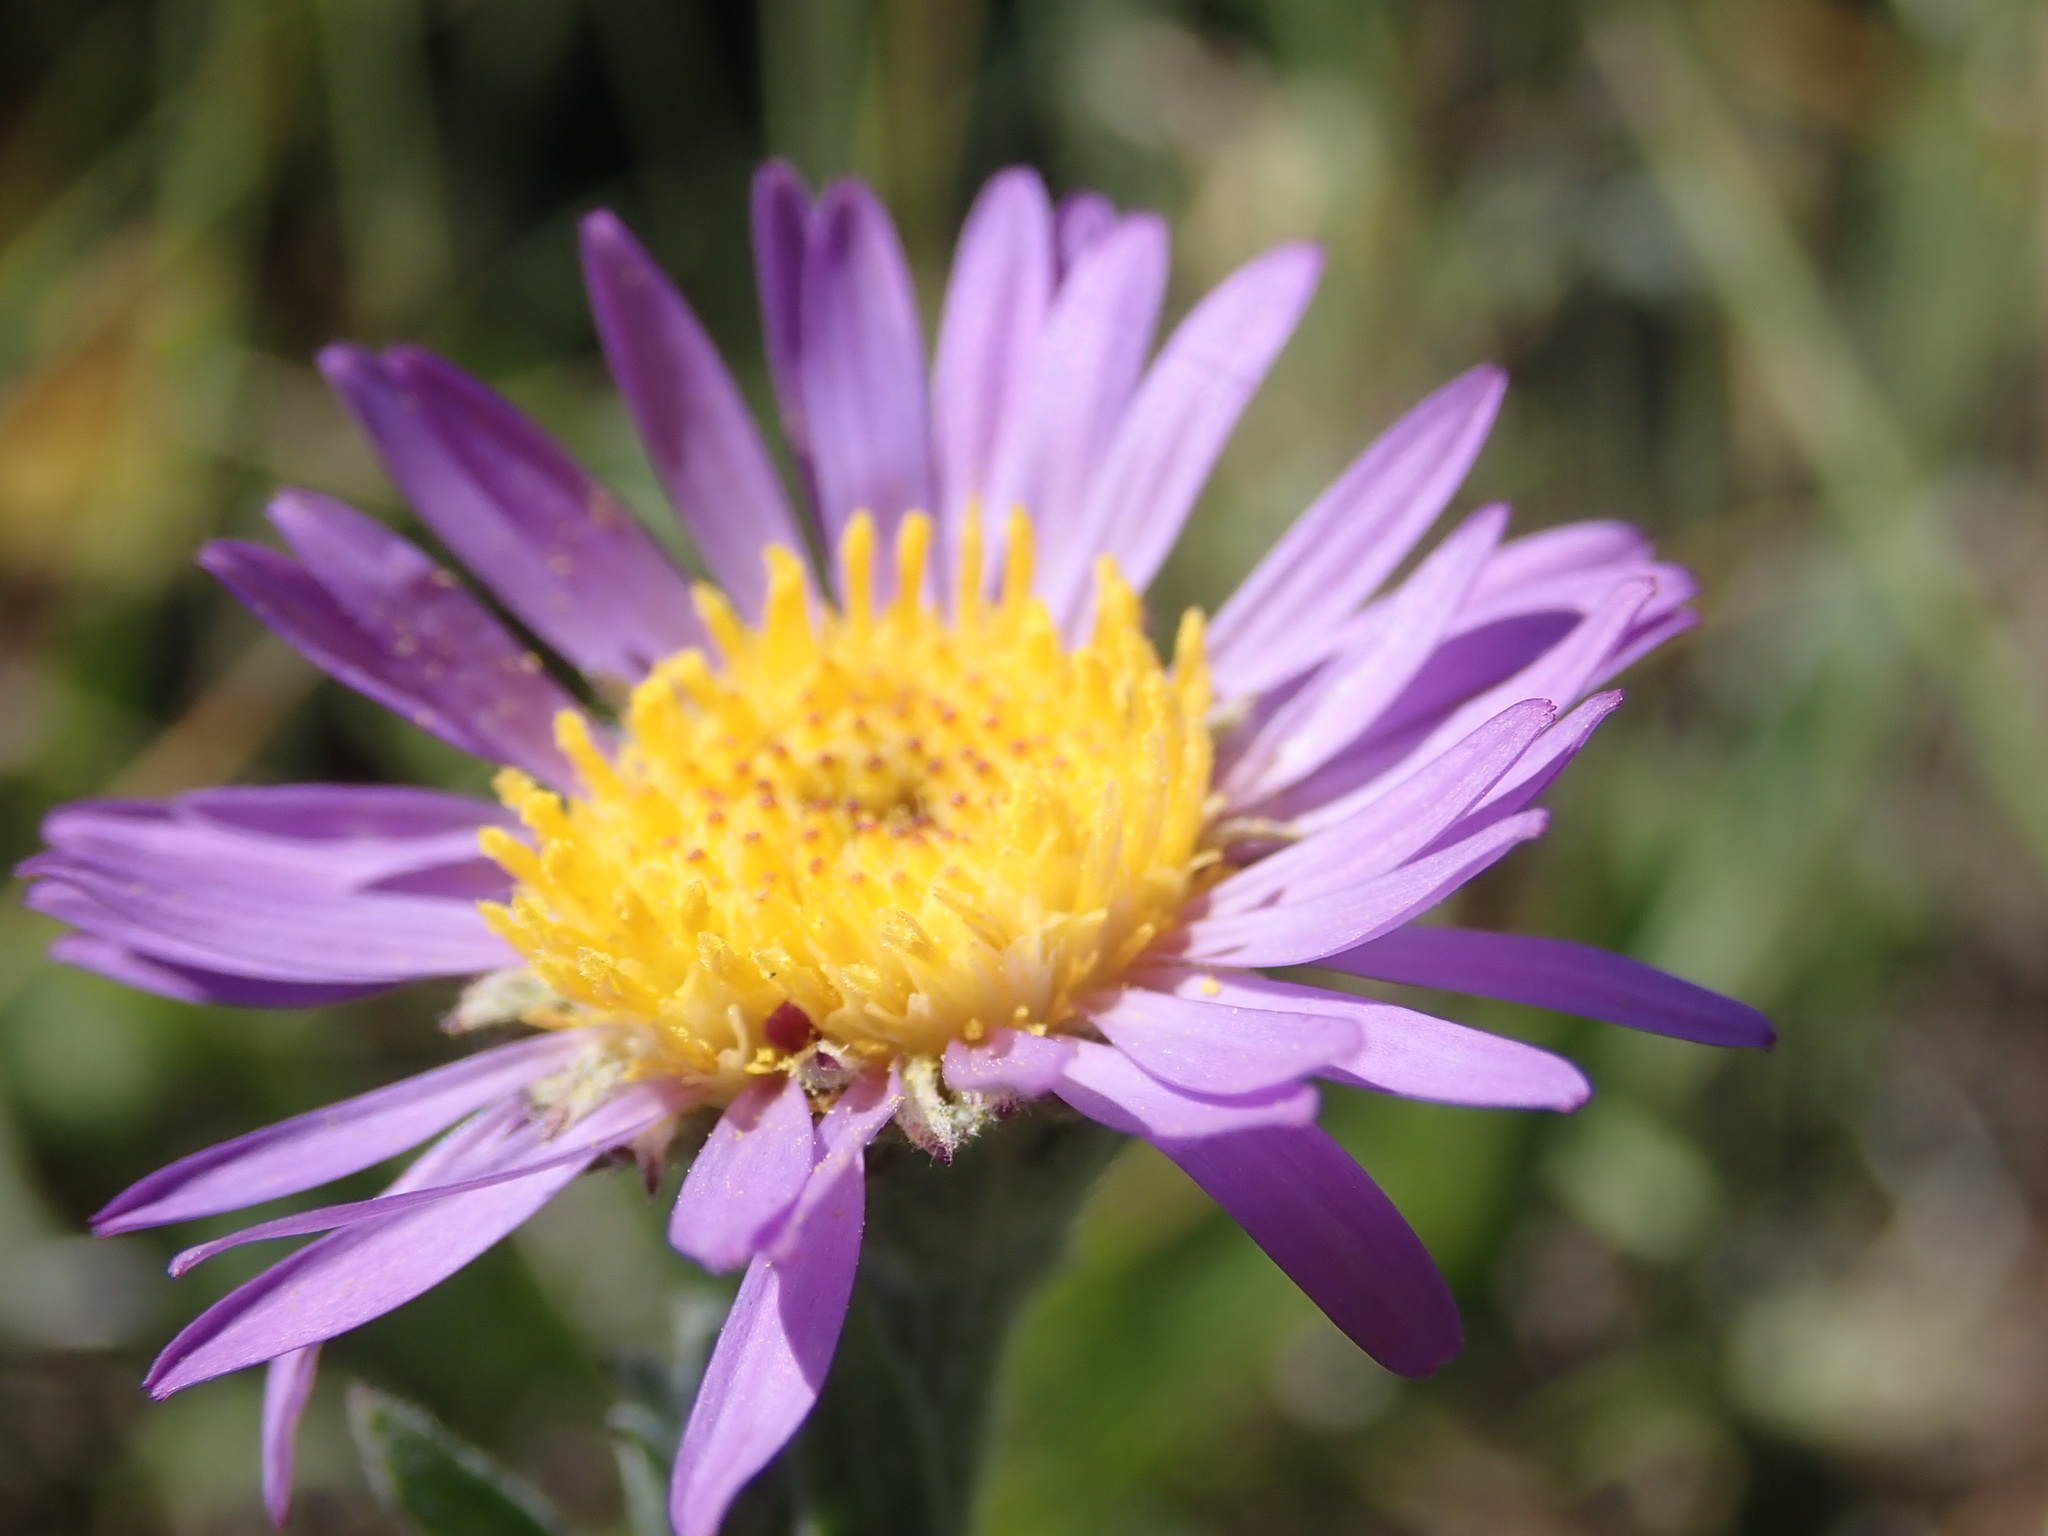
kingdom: Plantae
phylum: Tracheophyta
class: Magnoliopsida
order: Asterales
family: Asteraceae
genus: Symphyotrichum
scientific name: Symphyotrichum molle
